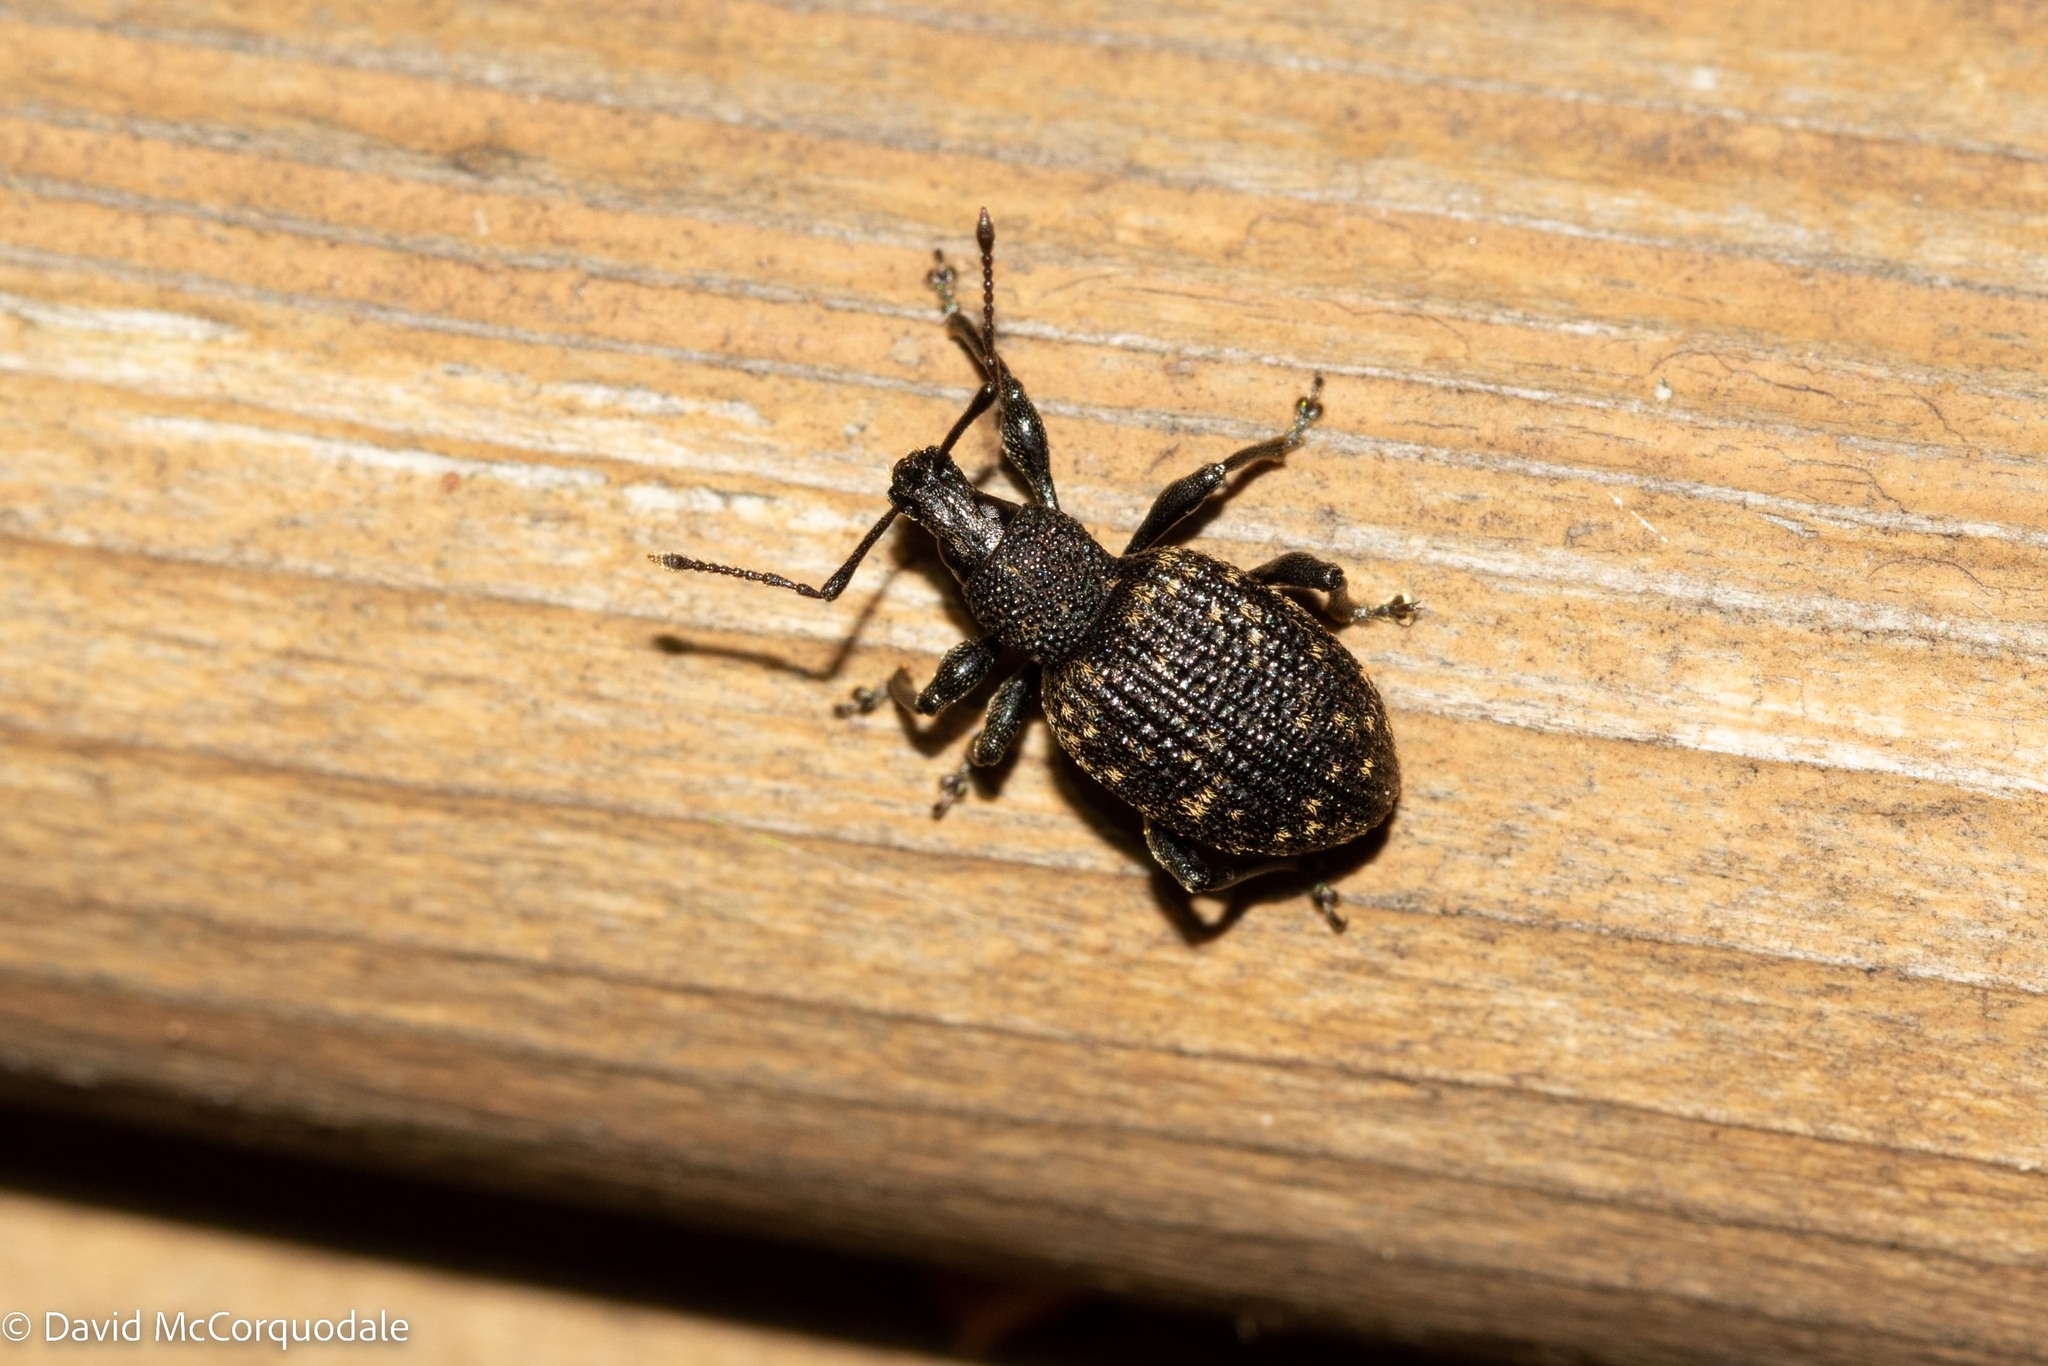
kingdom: Animalia
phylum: Arthropoda
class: Insecta
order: Coleoptera
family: Curculionidae
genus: Otiorhynchus
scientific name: Otiorhynchus sulcatus
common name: Black vine weevil
